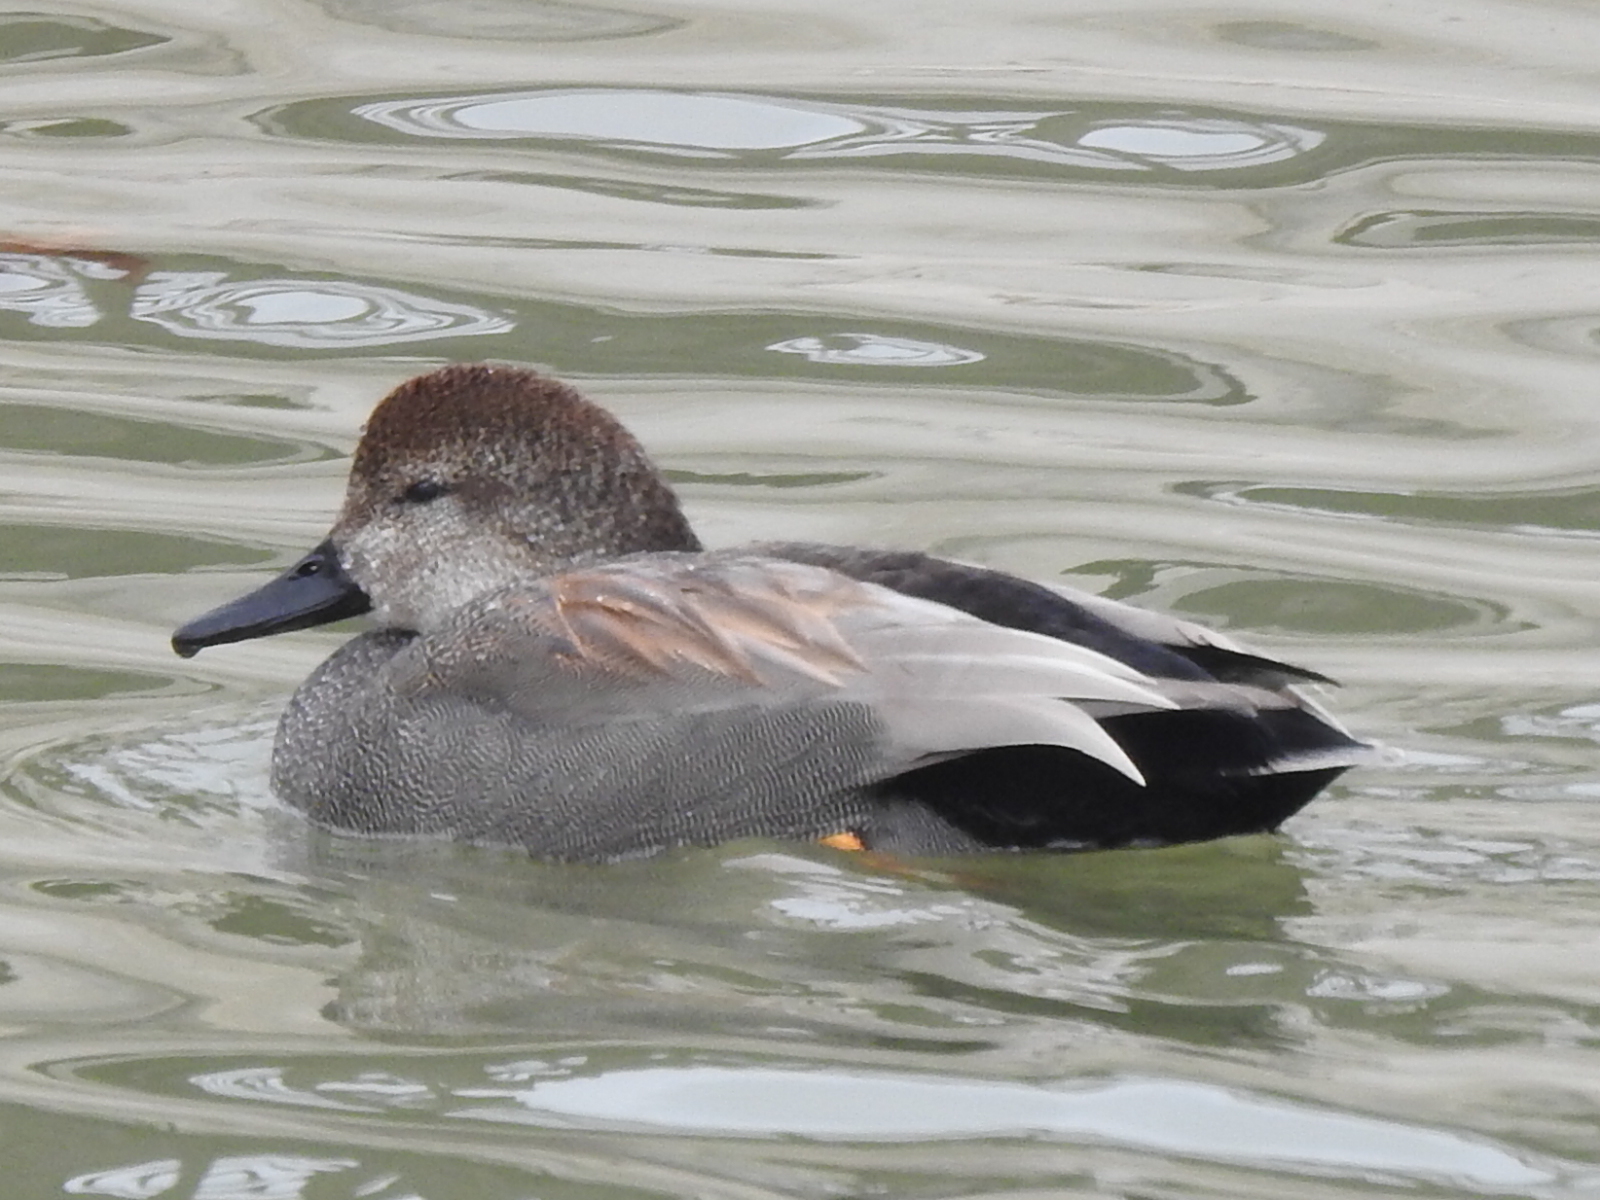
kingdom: Animalia
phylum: Chordata
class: Aves
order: Anseriformes
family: Anatidae
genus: Mareca
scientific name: Mareca strepera
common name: Gadwall
